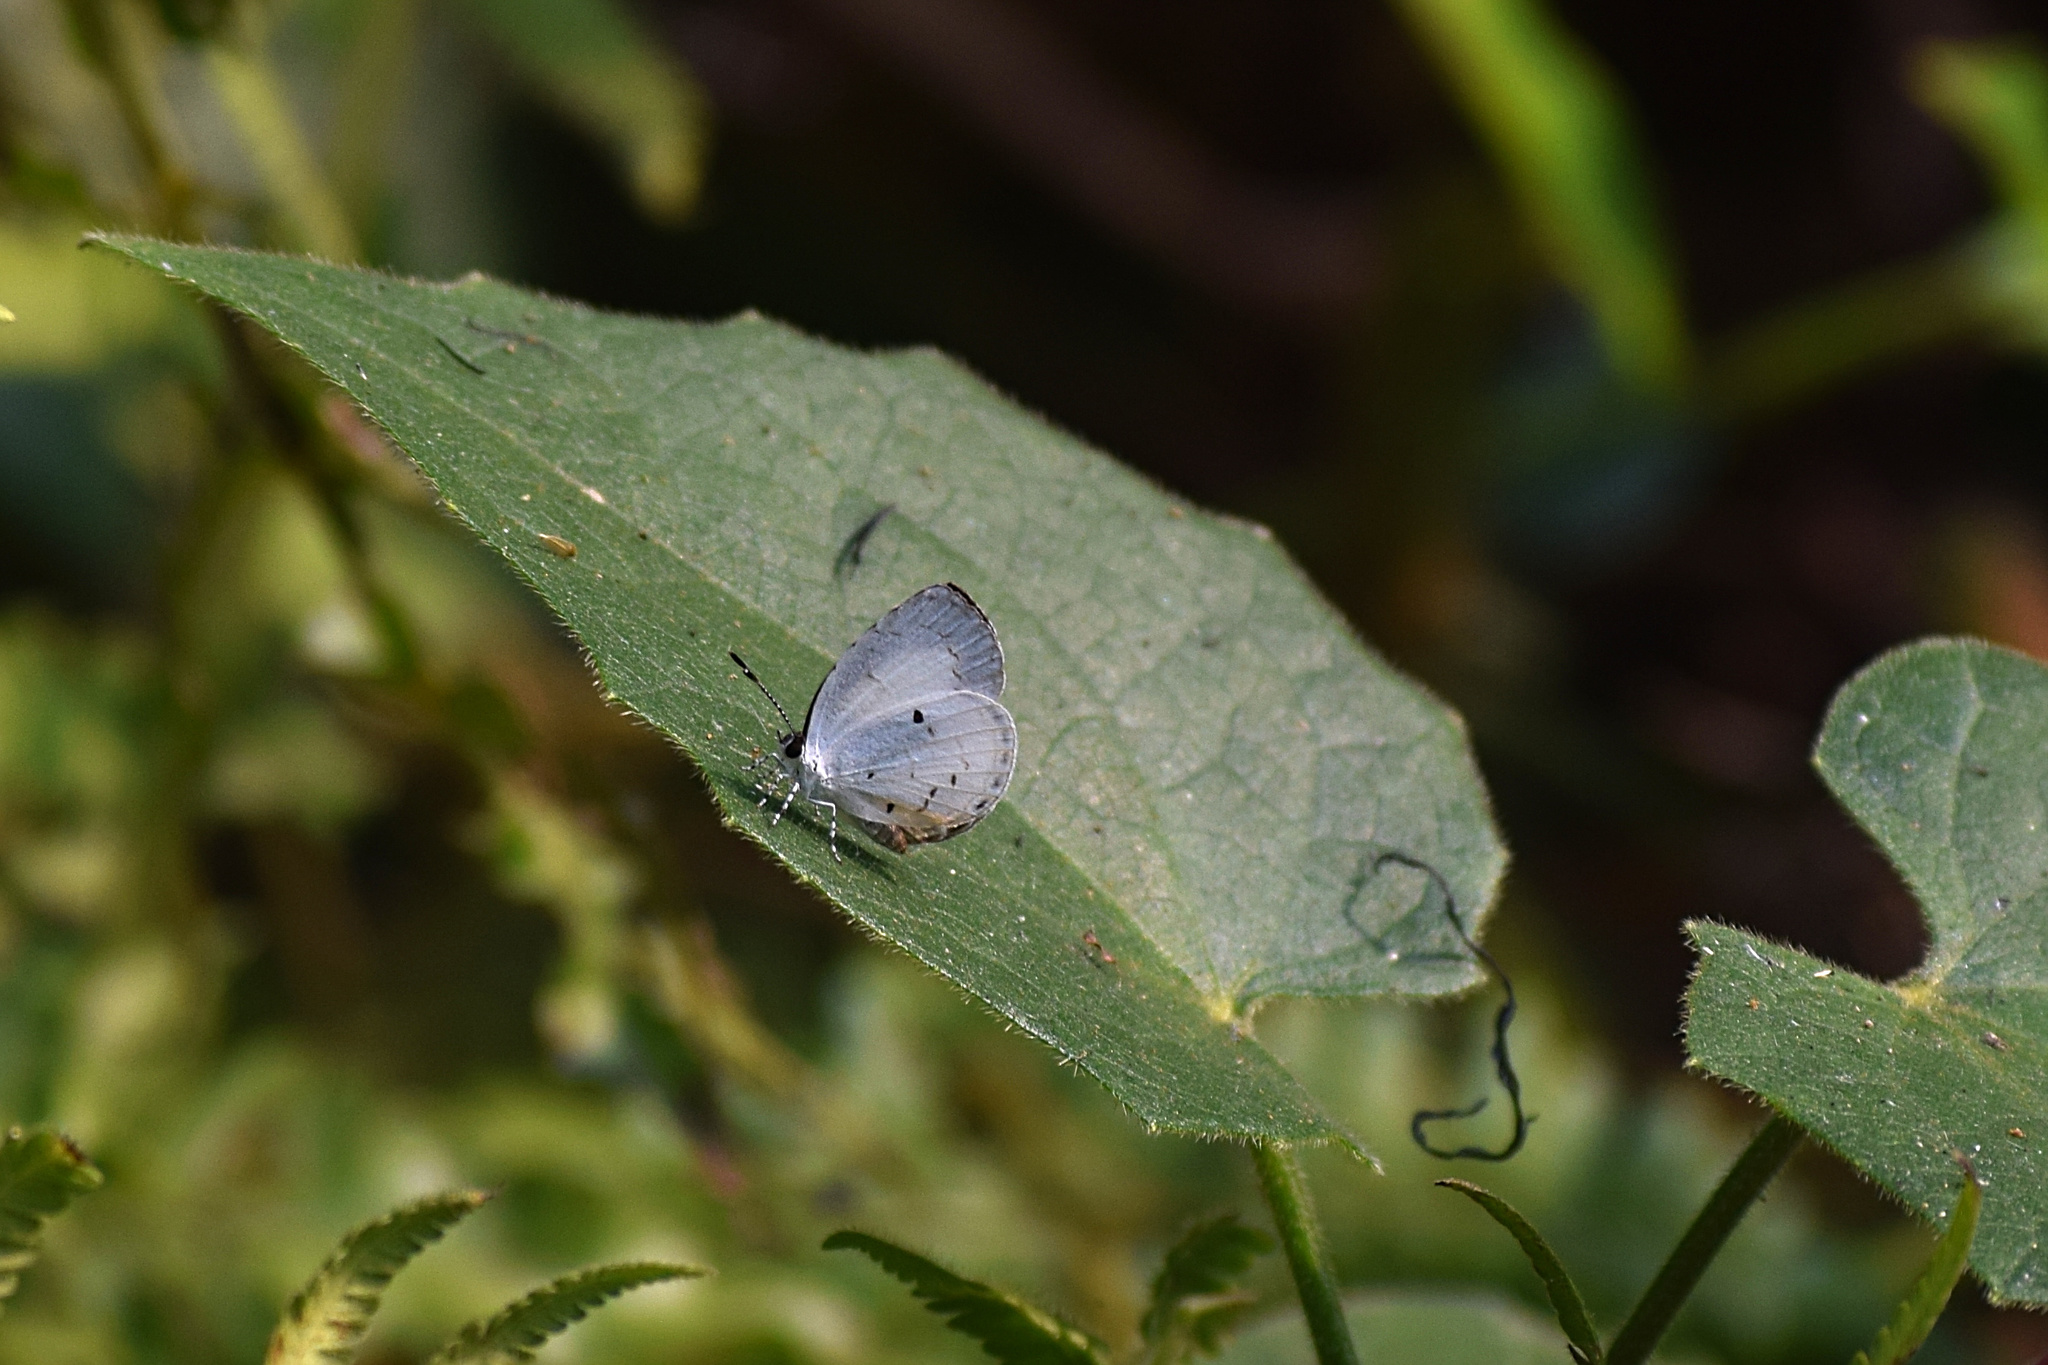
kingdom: Animalia
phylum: Arthropoda
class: Insecta
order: Lepidoptera
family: Lycaenidae
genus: Neopithecops
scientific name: Neopithecops zalmora
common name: Quaker
